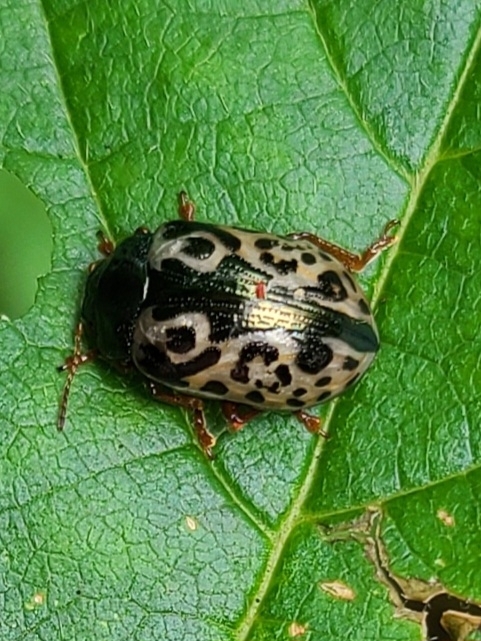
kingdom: Animalia
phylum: Arthropoda
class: Insecta
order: Coleoptera
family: Chrysomelidae
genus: Calligrapha
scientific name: Calligrapha confluens
